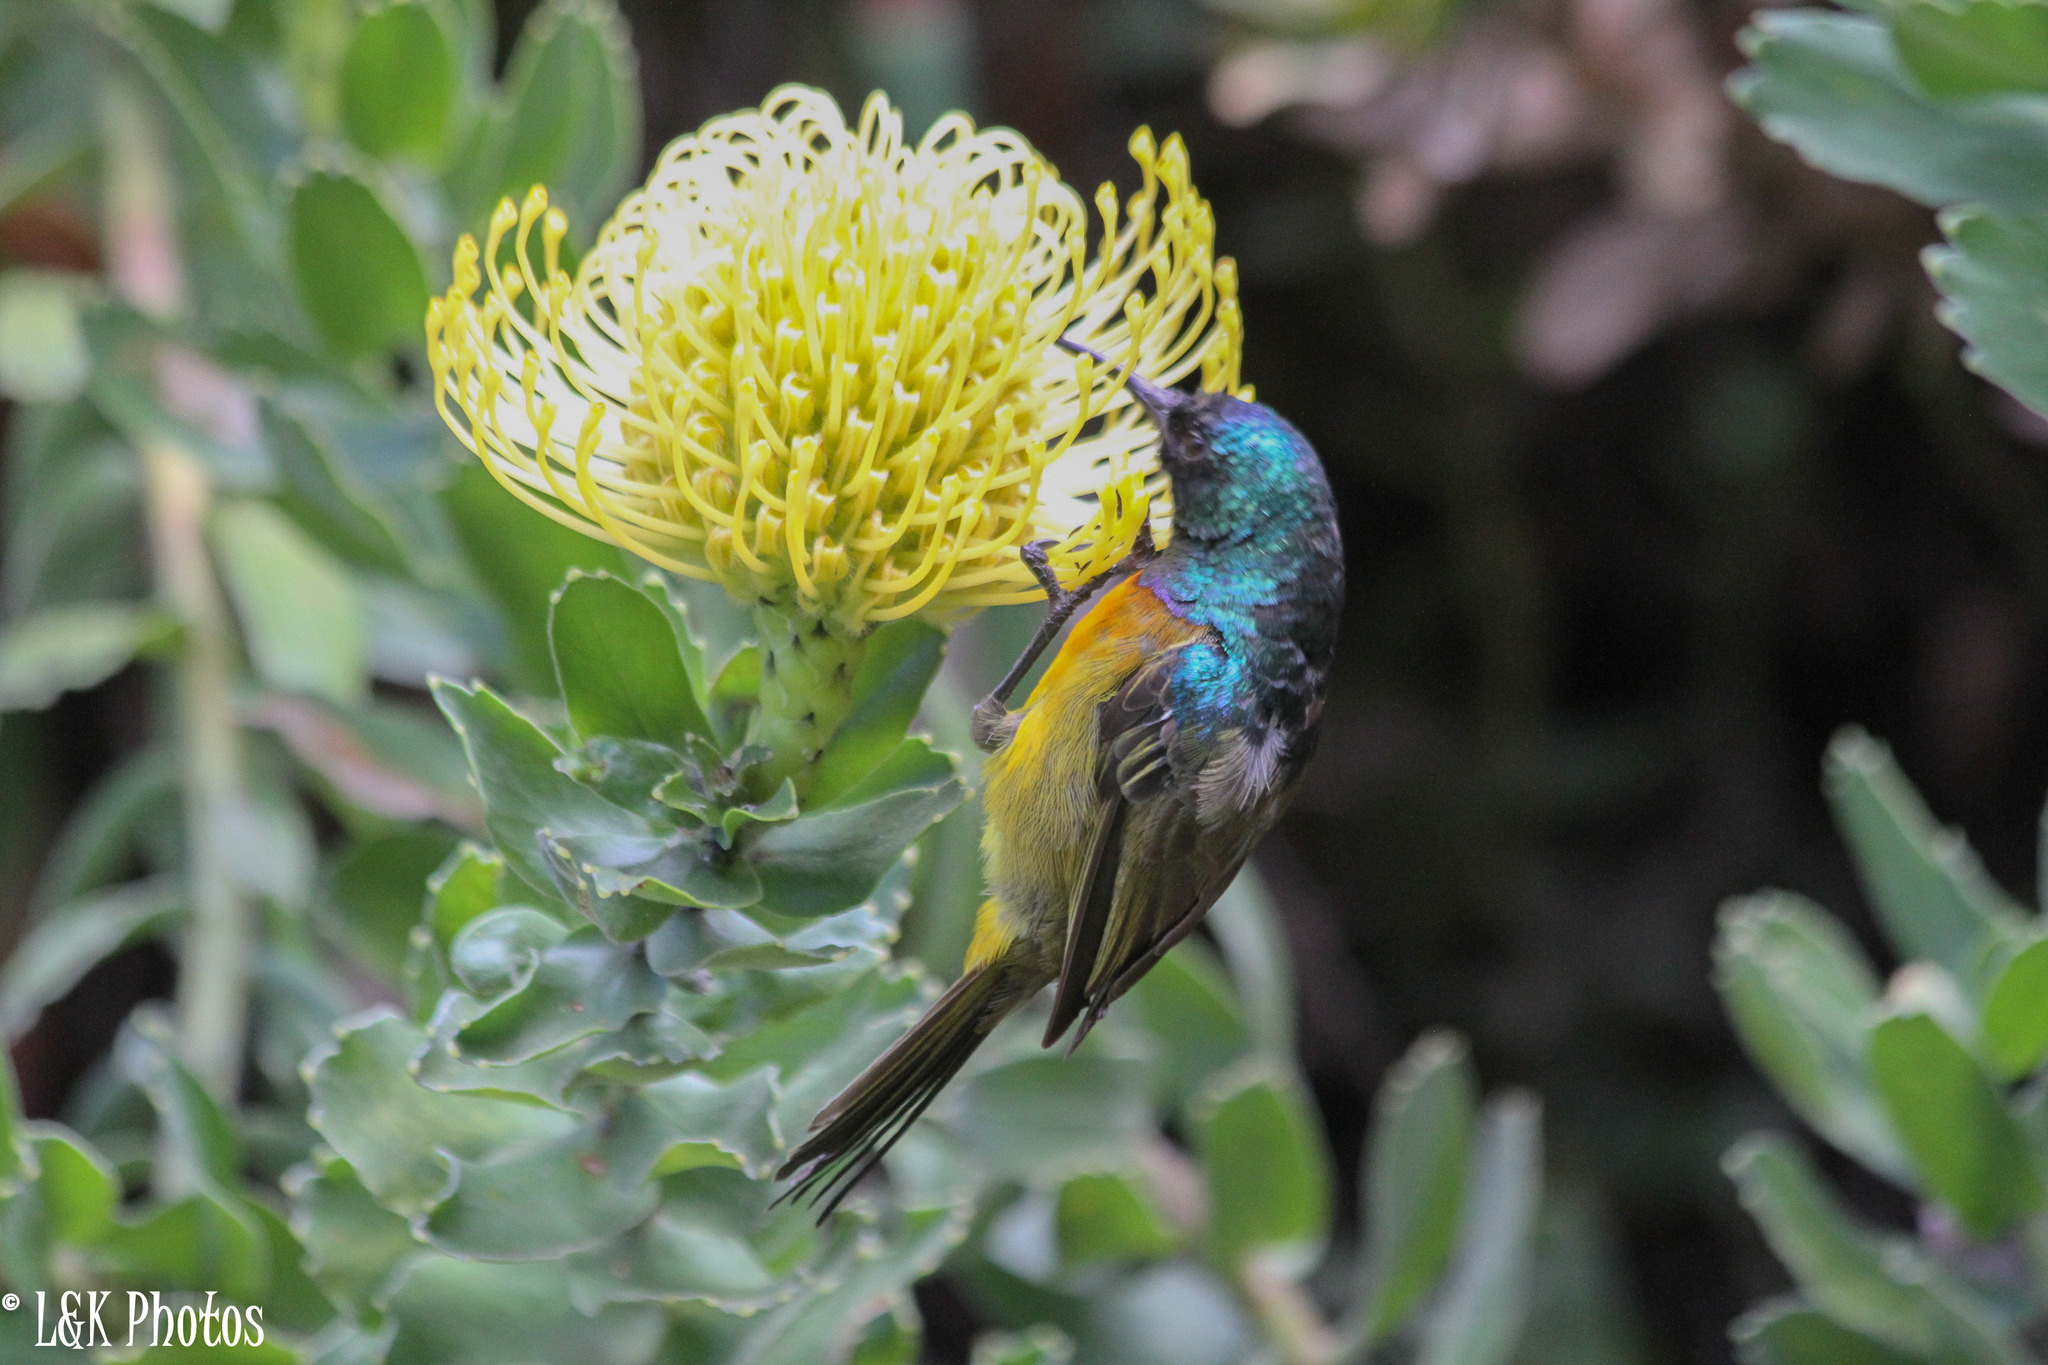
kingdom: Animalia
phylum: Chordata
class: Aves
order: Passeriformes
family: Nectariniidae
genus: Anthobaphes
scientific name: Anthobaphes violacea
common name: Orange-breasted sunbird
